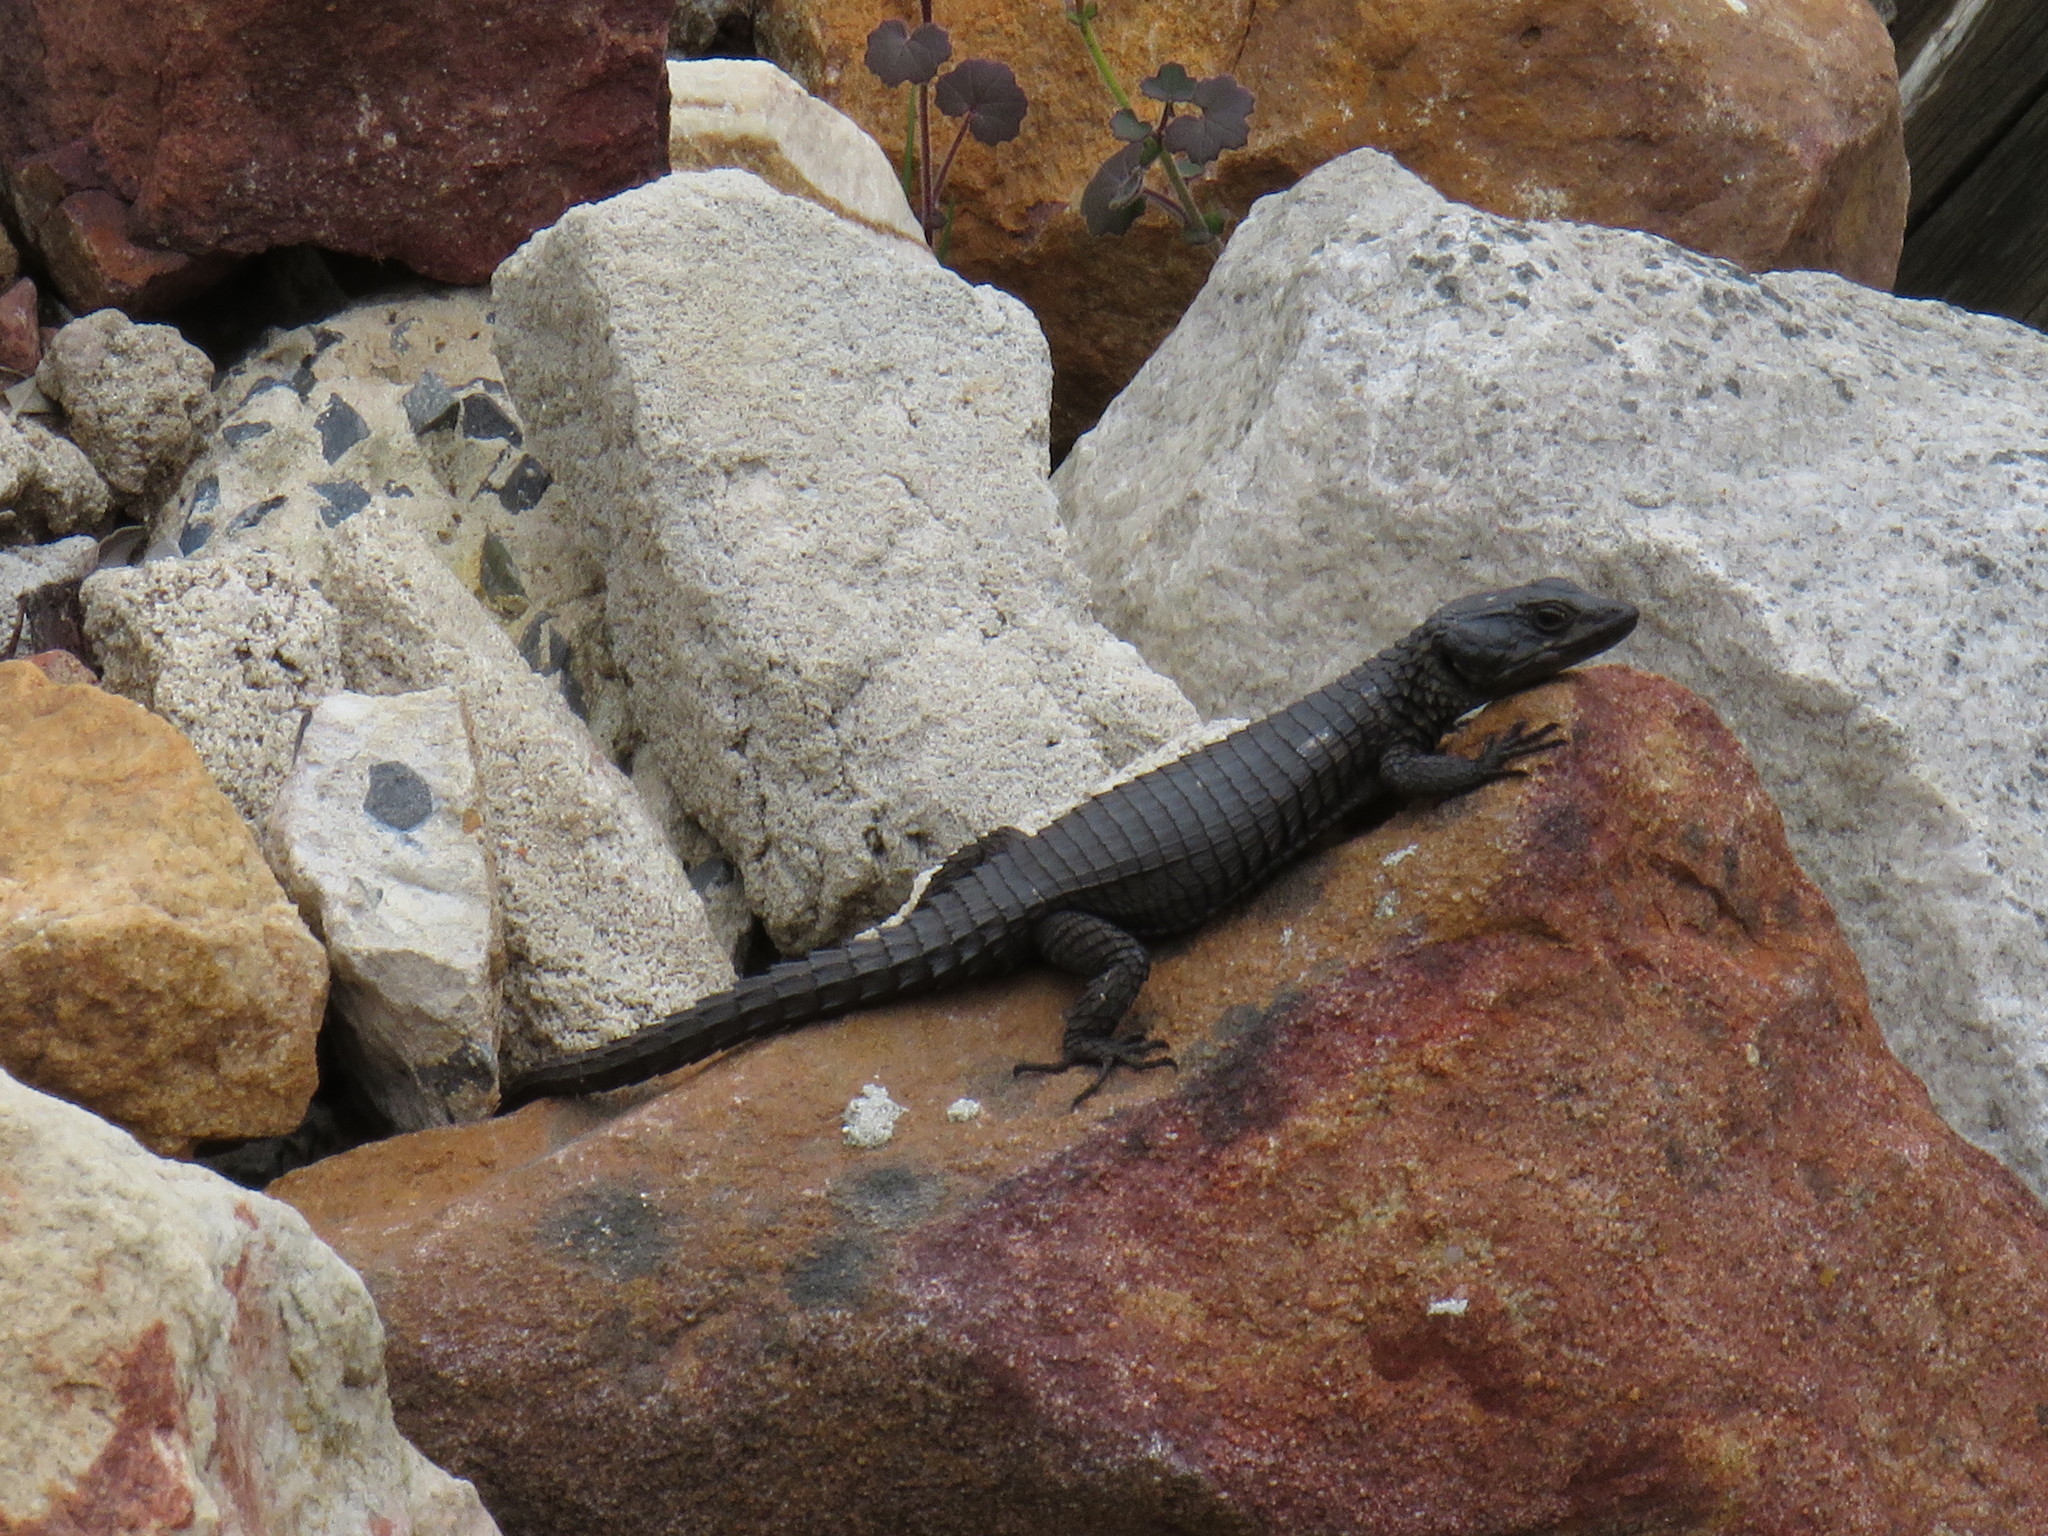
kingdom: Animalia
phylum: Chordata
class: Squamata
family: Cordylidae
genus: Cordylus
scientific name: Cordylus niger
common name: Black girdled lizard
